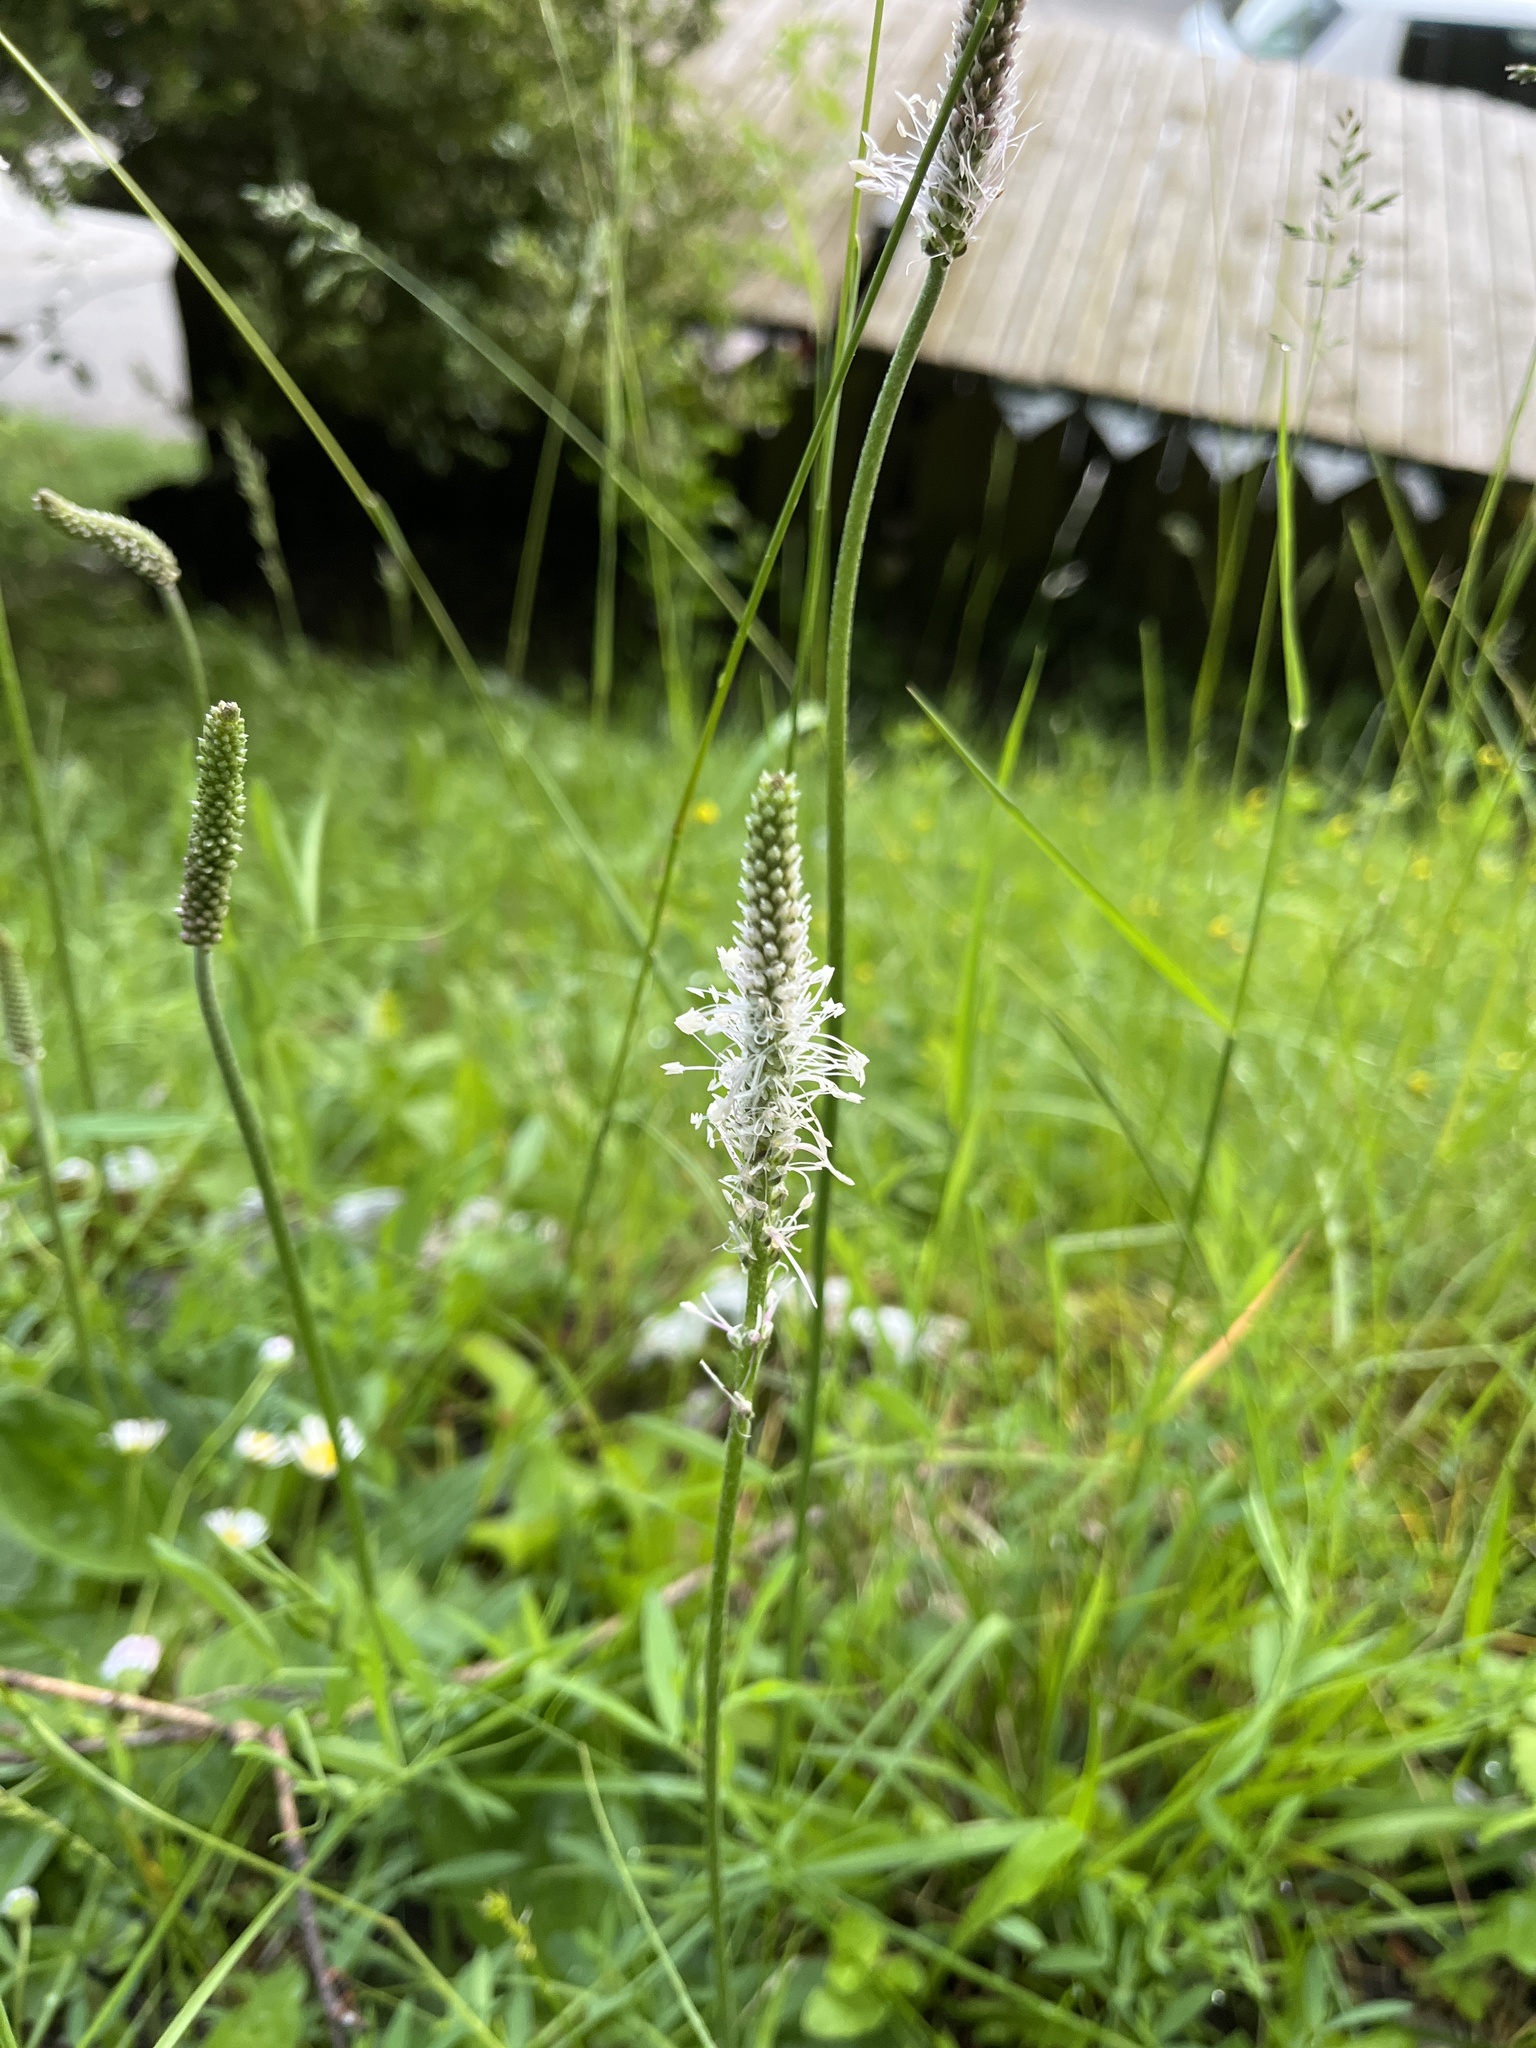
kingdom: Plantae
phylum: Tracheophyta
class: Magnoliopsida
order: Lamiales
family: Plantaginaceae
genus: Plantago
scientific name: Plantago media
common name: Hoary plantain
